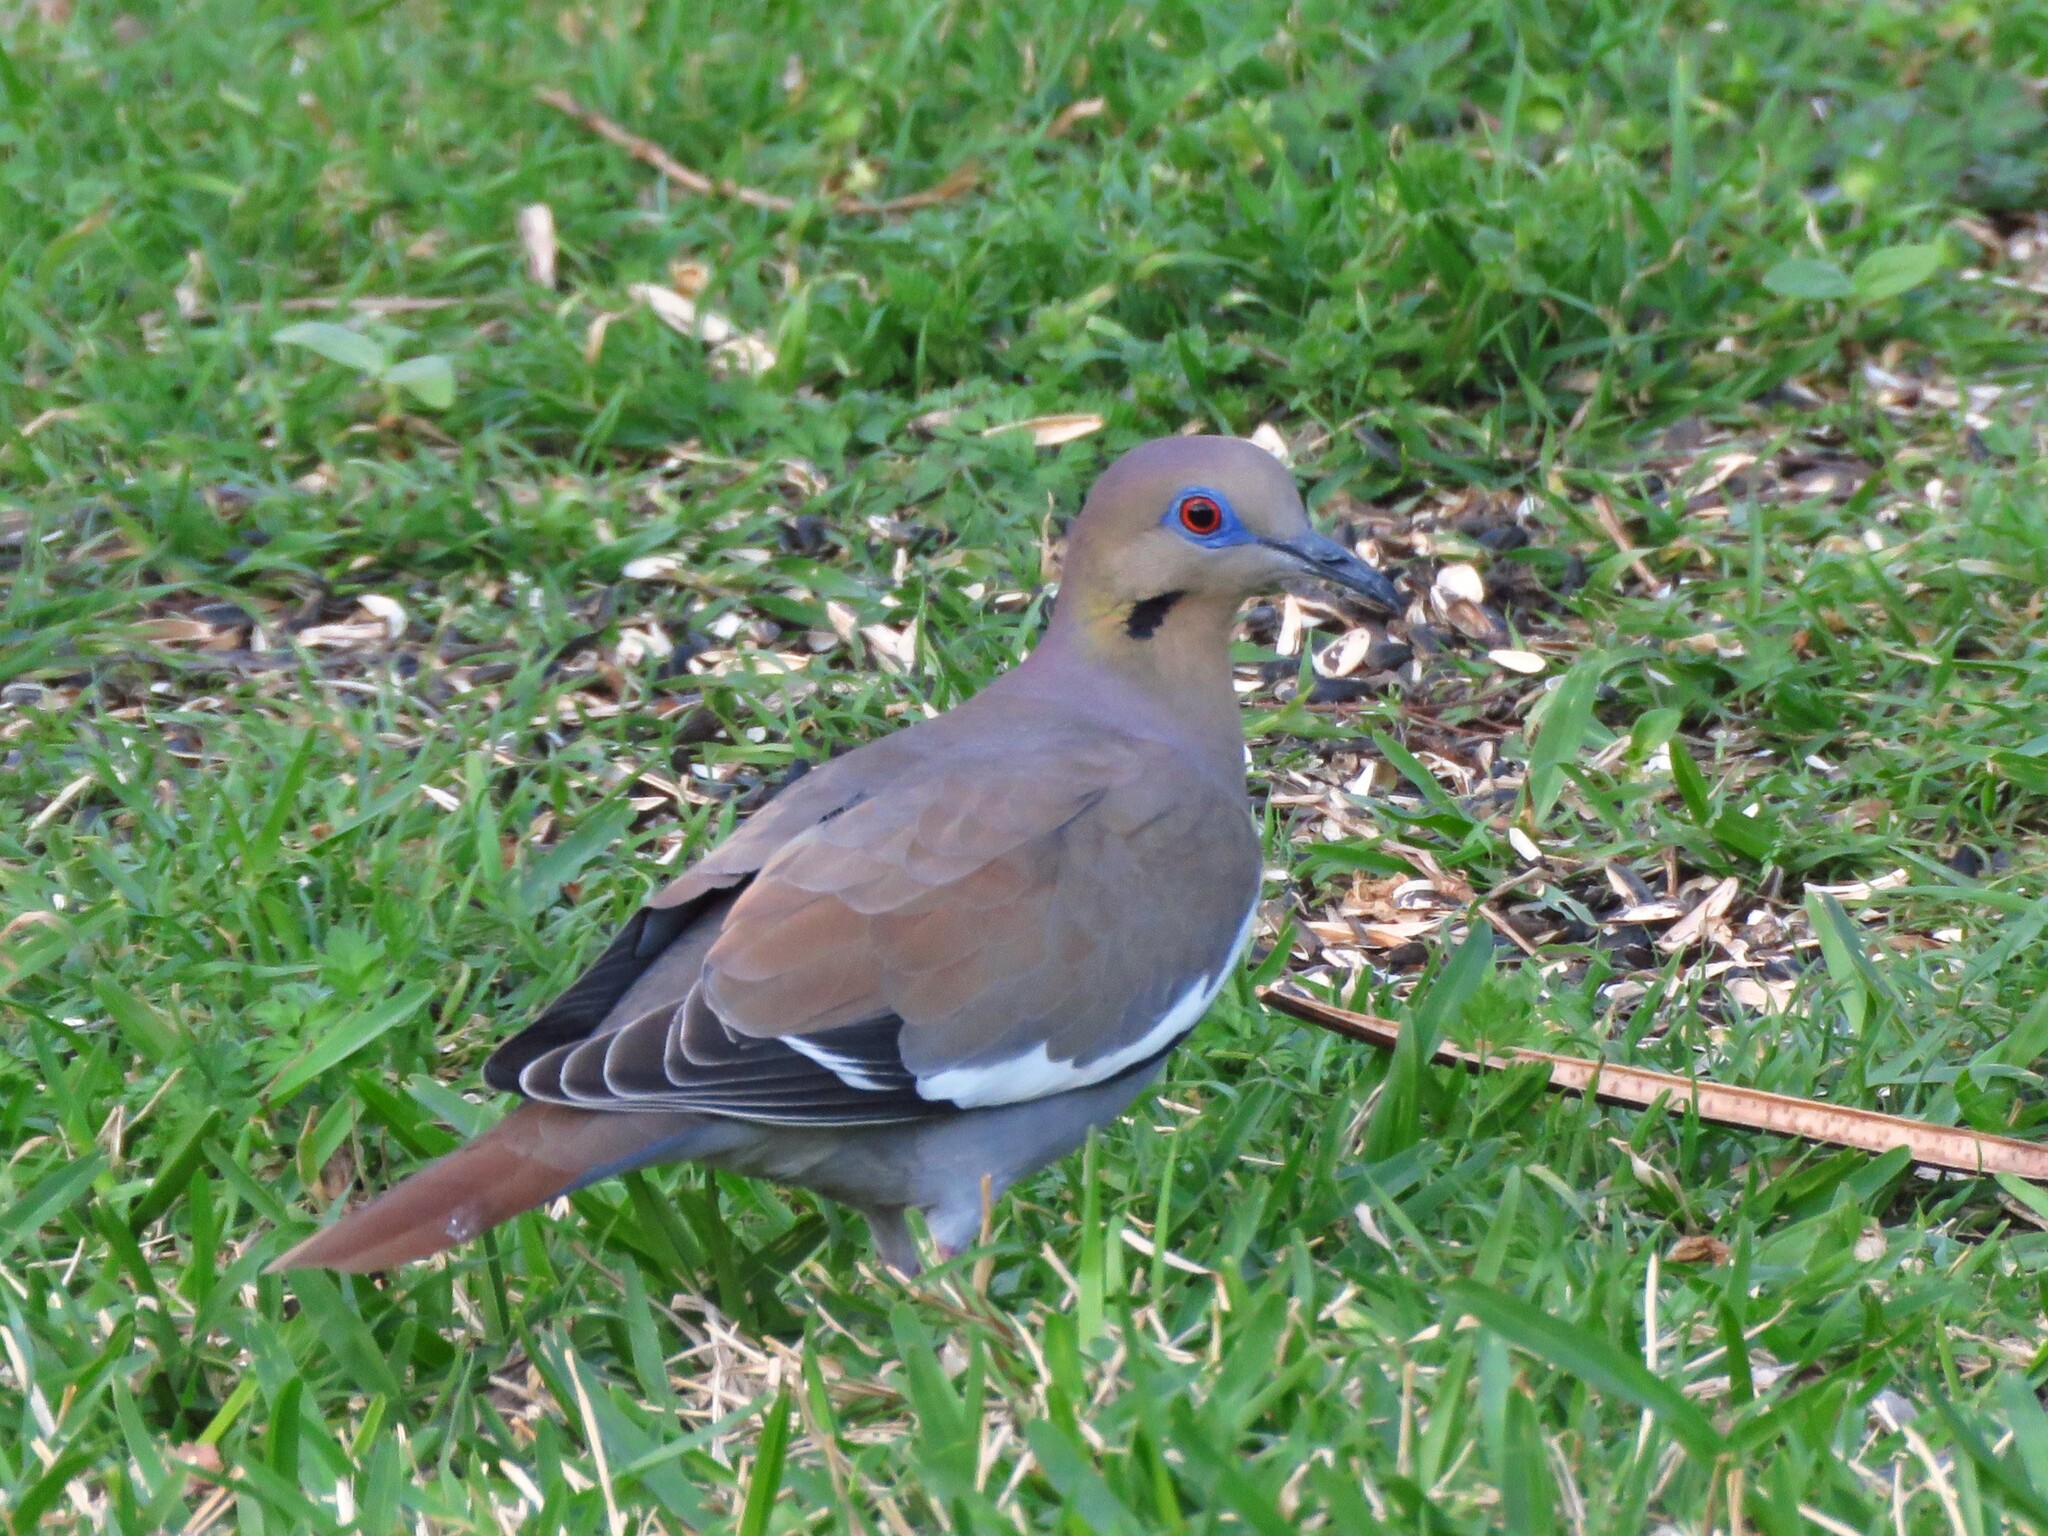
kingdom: Animalia
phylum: Chordata
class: Aves
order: Columbiformes
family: Columbidae
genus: Zenaida
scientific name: Zenaida asiatica
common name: White-winged dove
